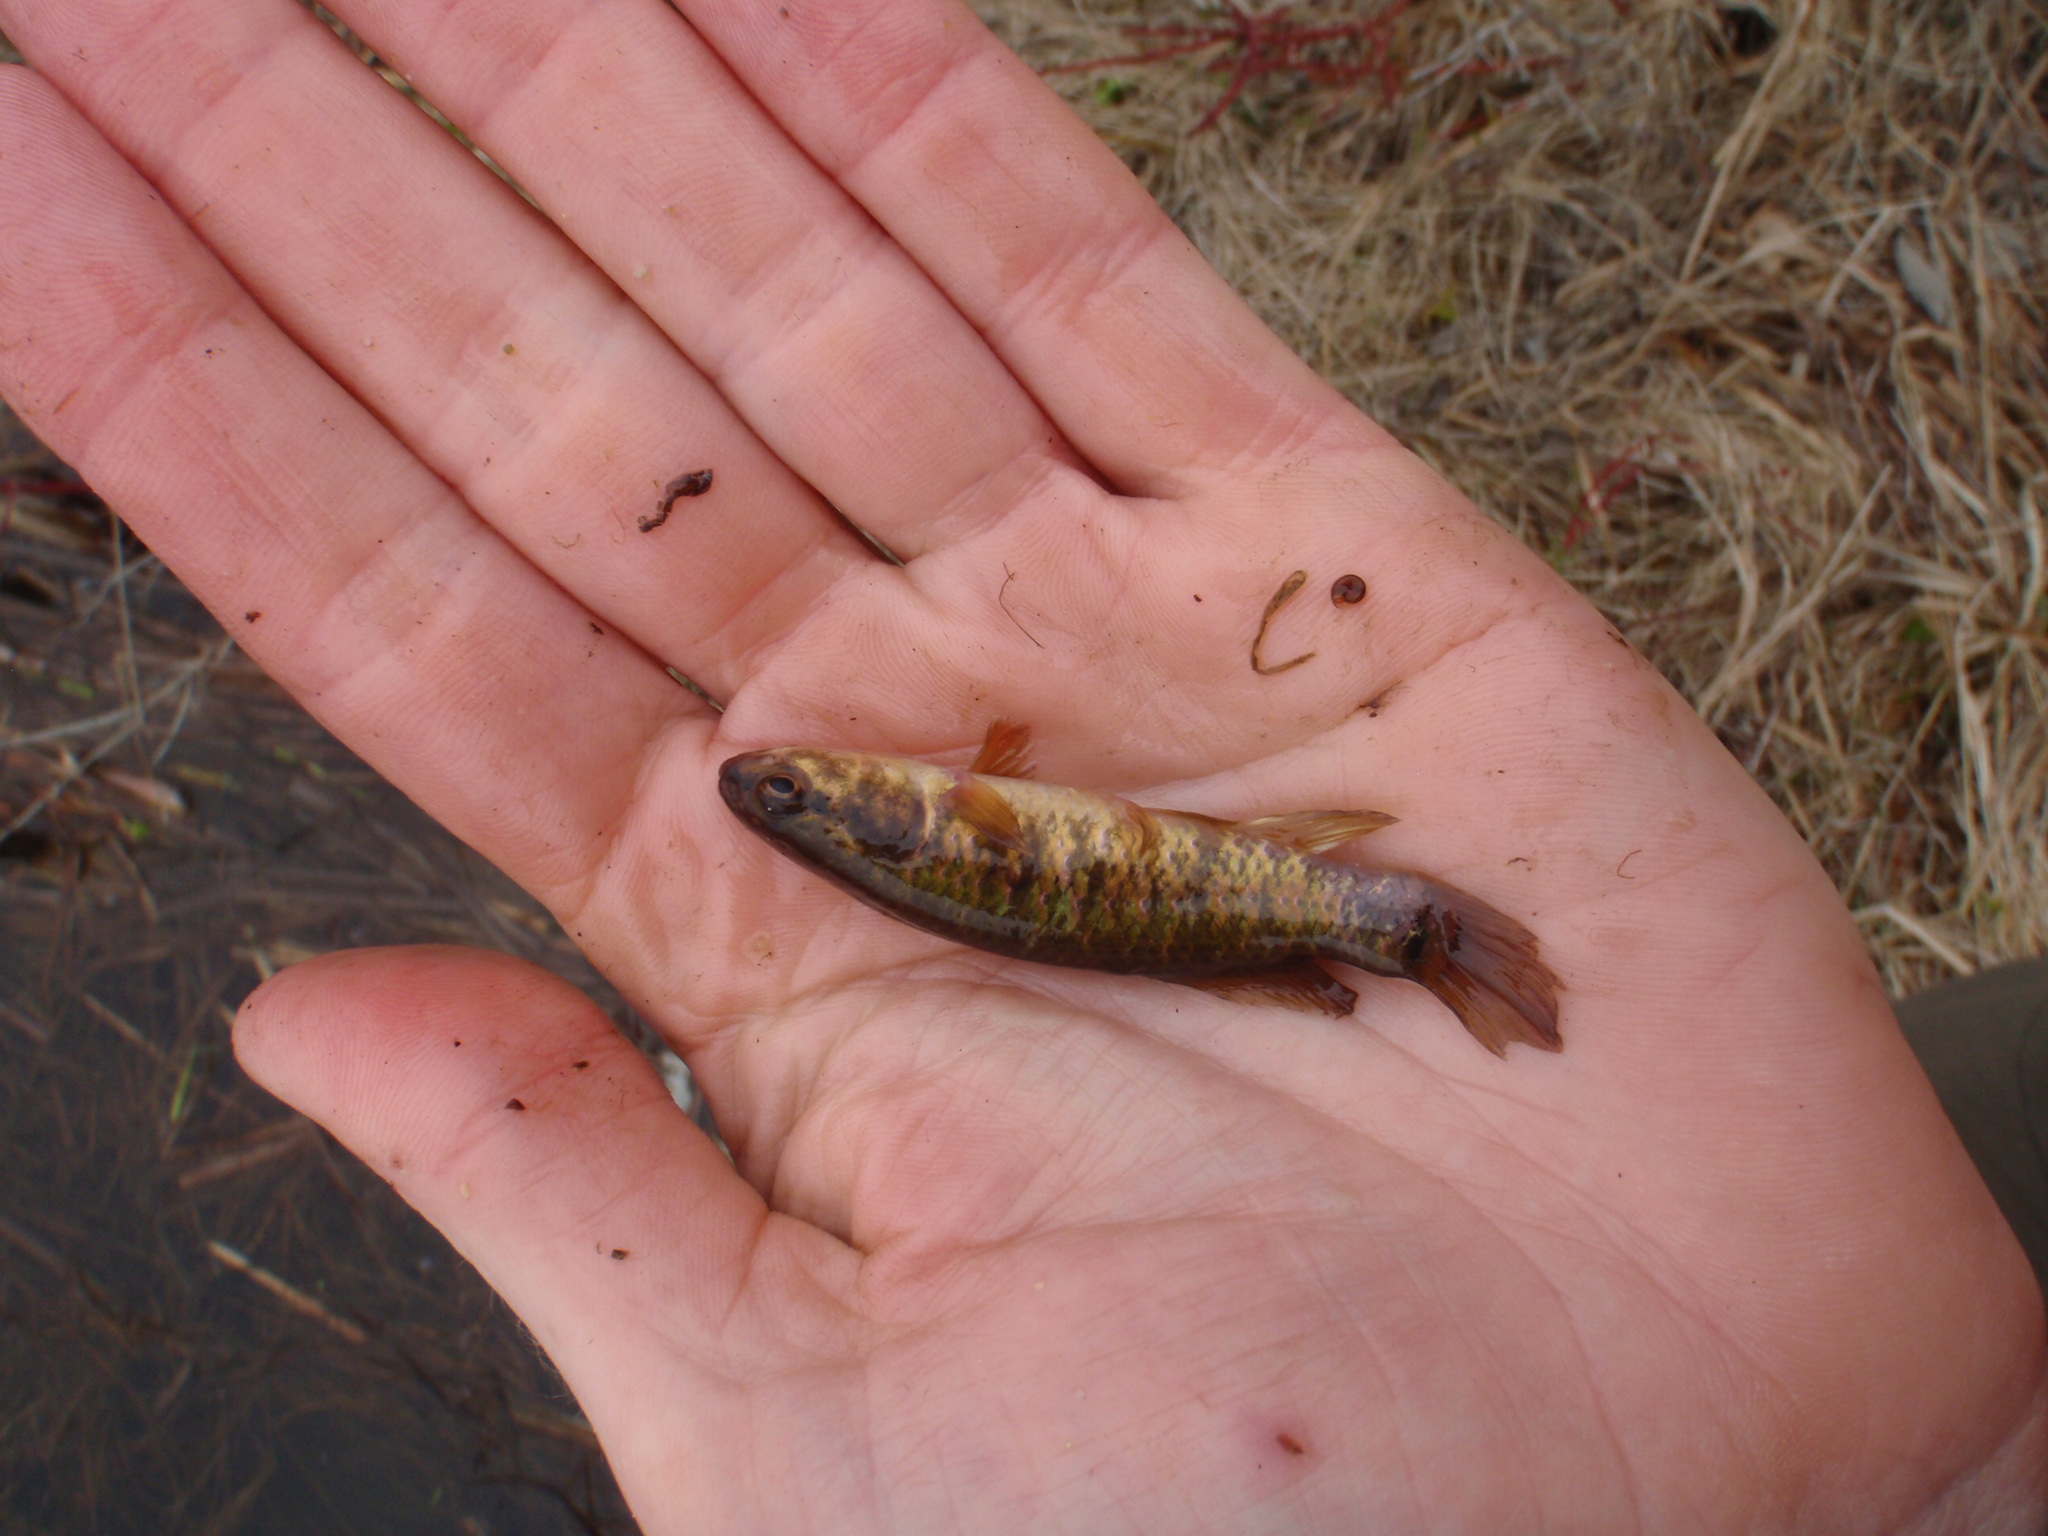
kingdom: Animalia
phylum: Chordata
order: Esociformes
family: Umbridae
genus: Umbra
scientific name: Umbra limi
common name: Central mudminnow
